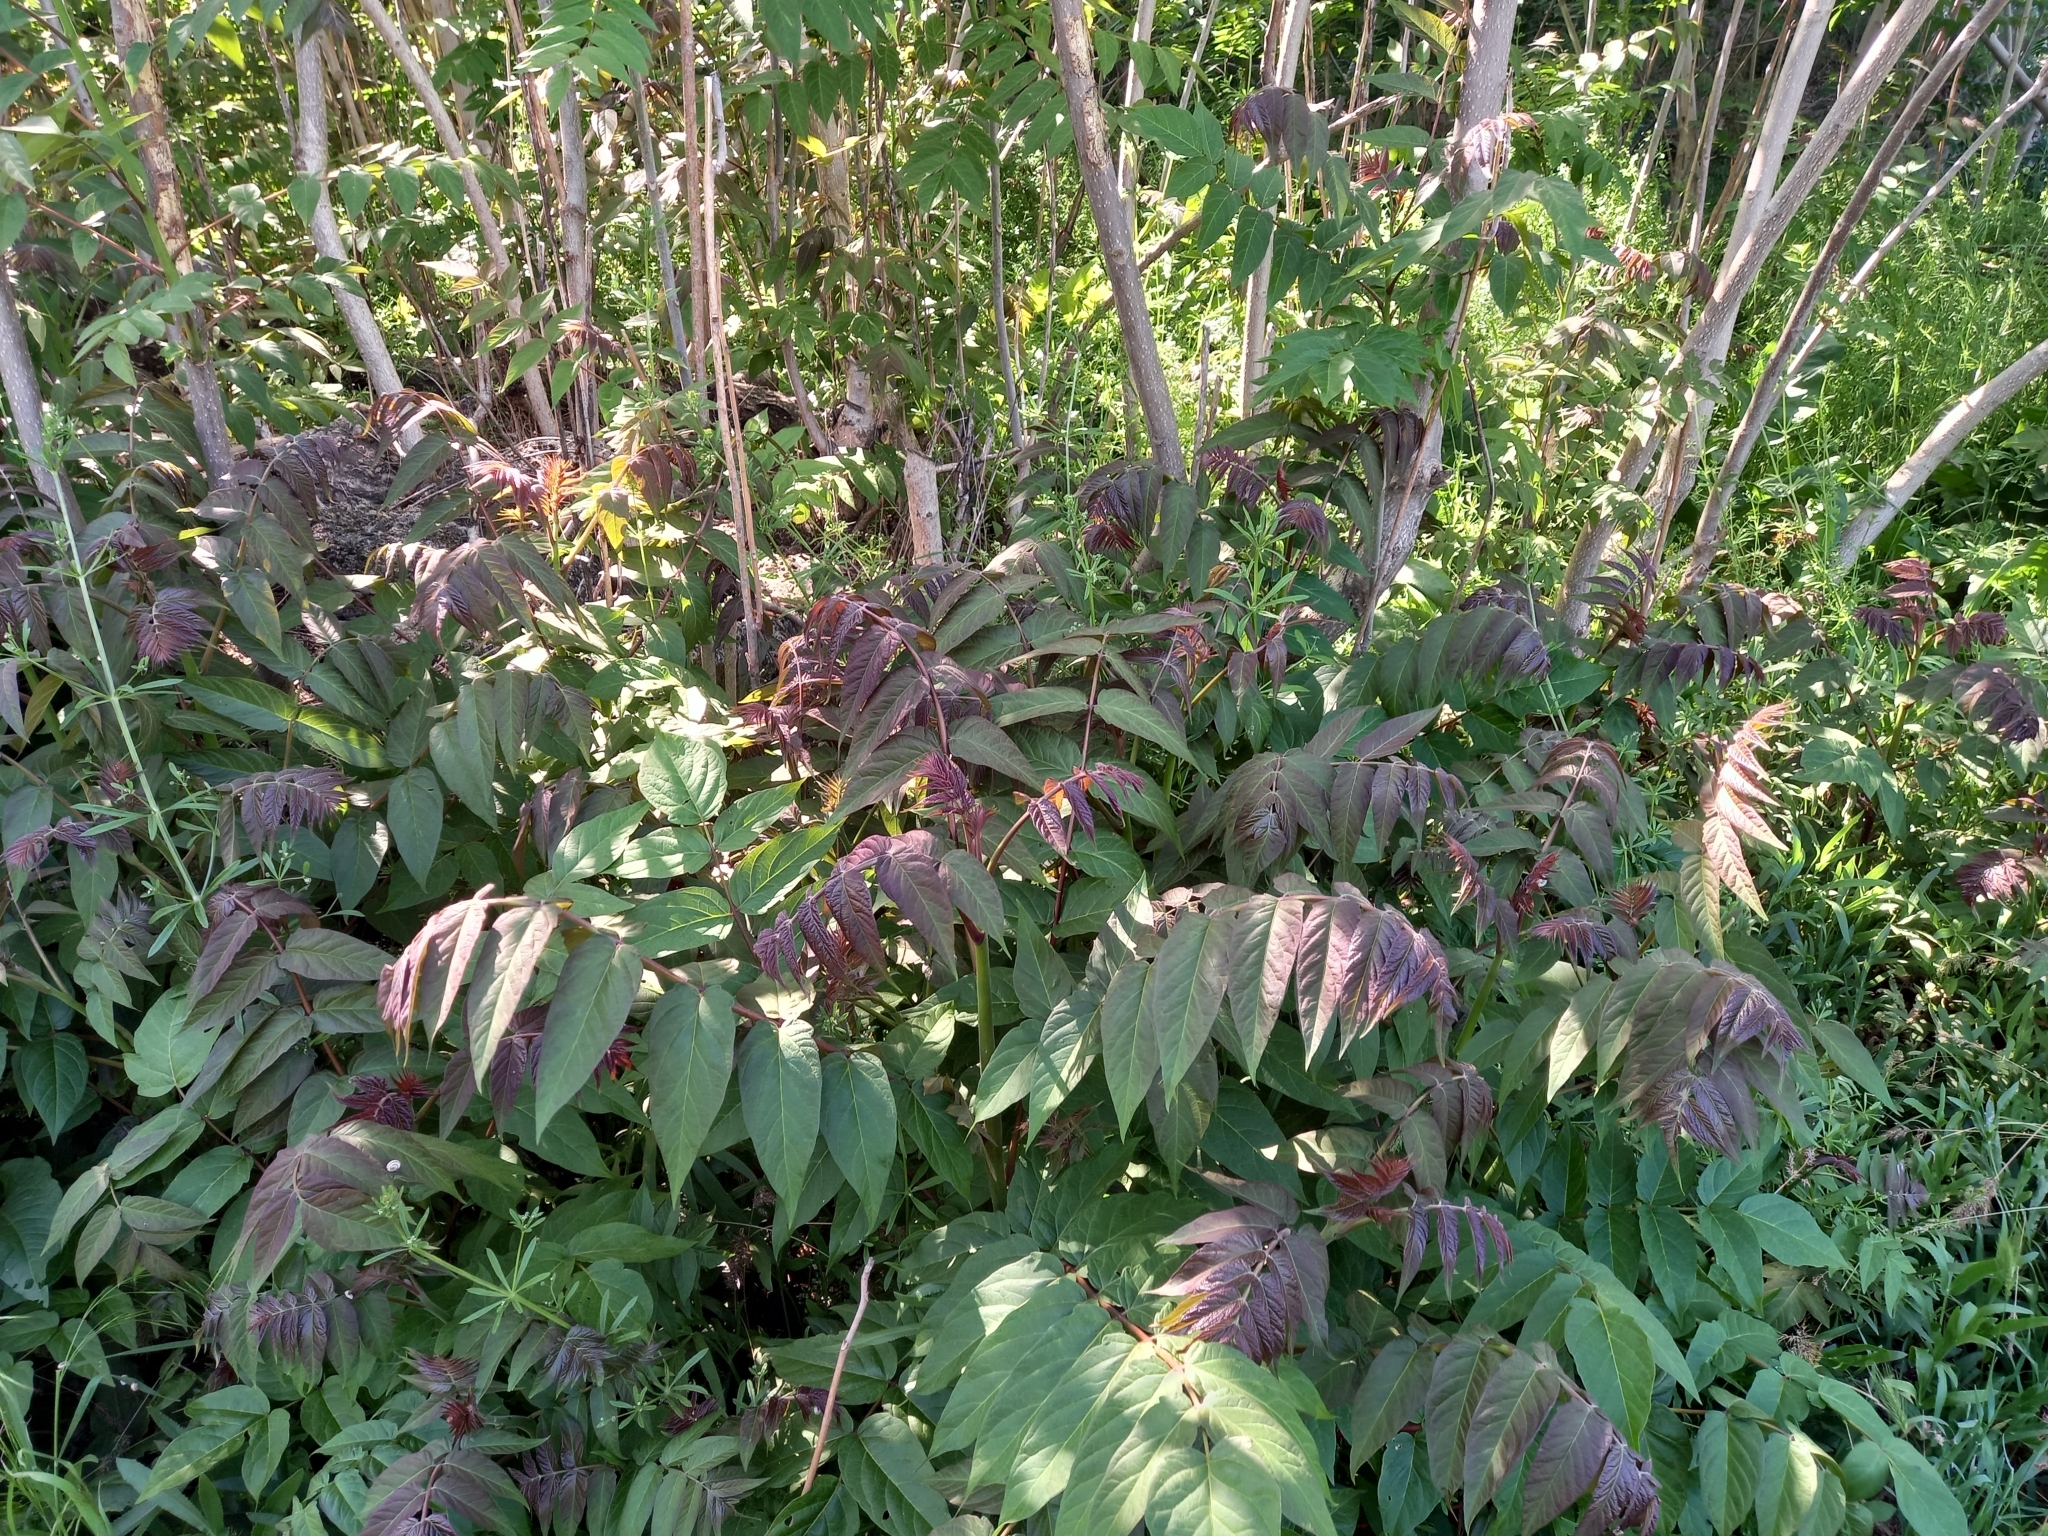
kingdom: Plantae
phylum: Tracheophyta
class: Magnoliopsida
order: Sapindales
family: Simaroubaceae
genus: Ailanthus
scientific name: Ailanthus altissima
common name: Tree-of-heaven
